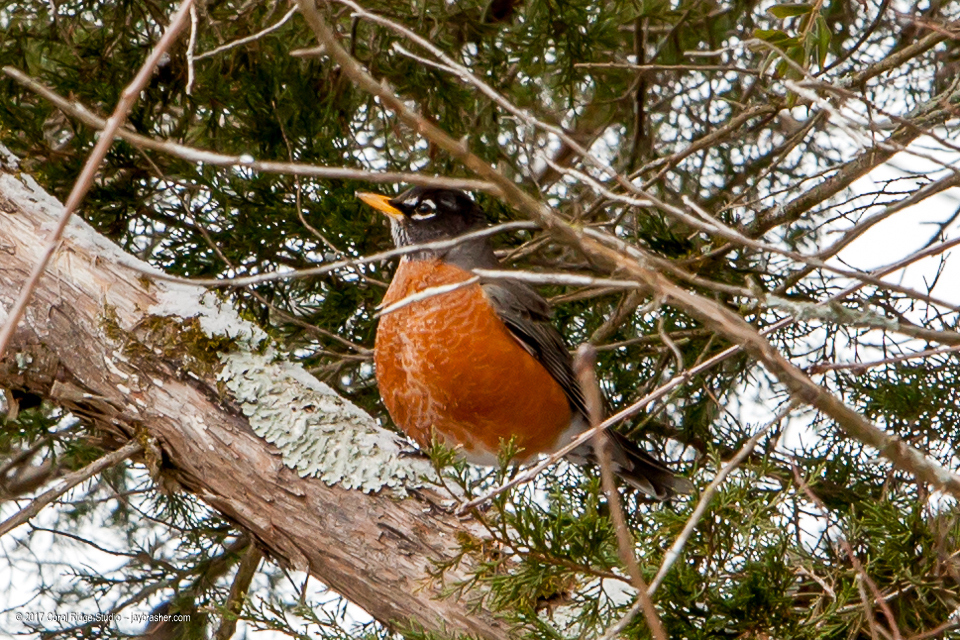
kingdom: Animalia
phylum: Chordata
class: Aves
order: Passeriformes
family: Turdidae
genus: Turdus
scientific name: Turdus migratorius
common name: American robin
